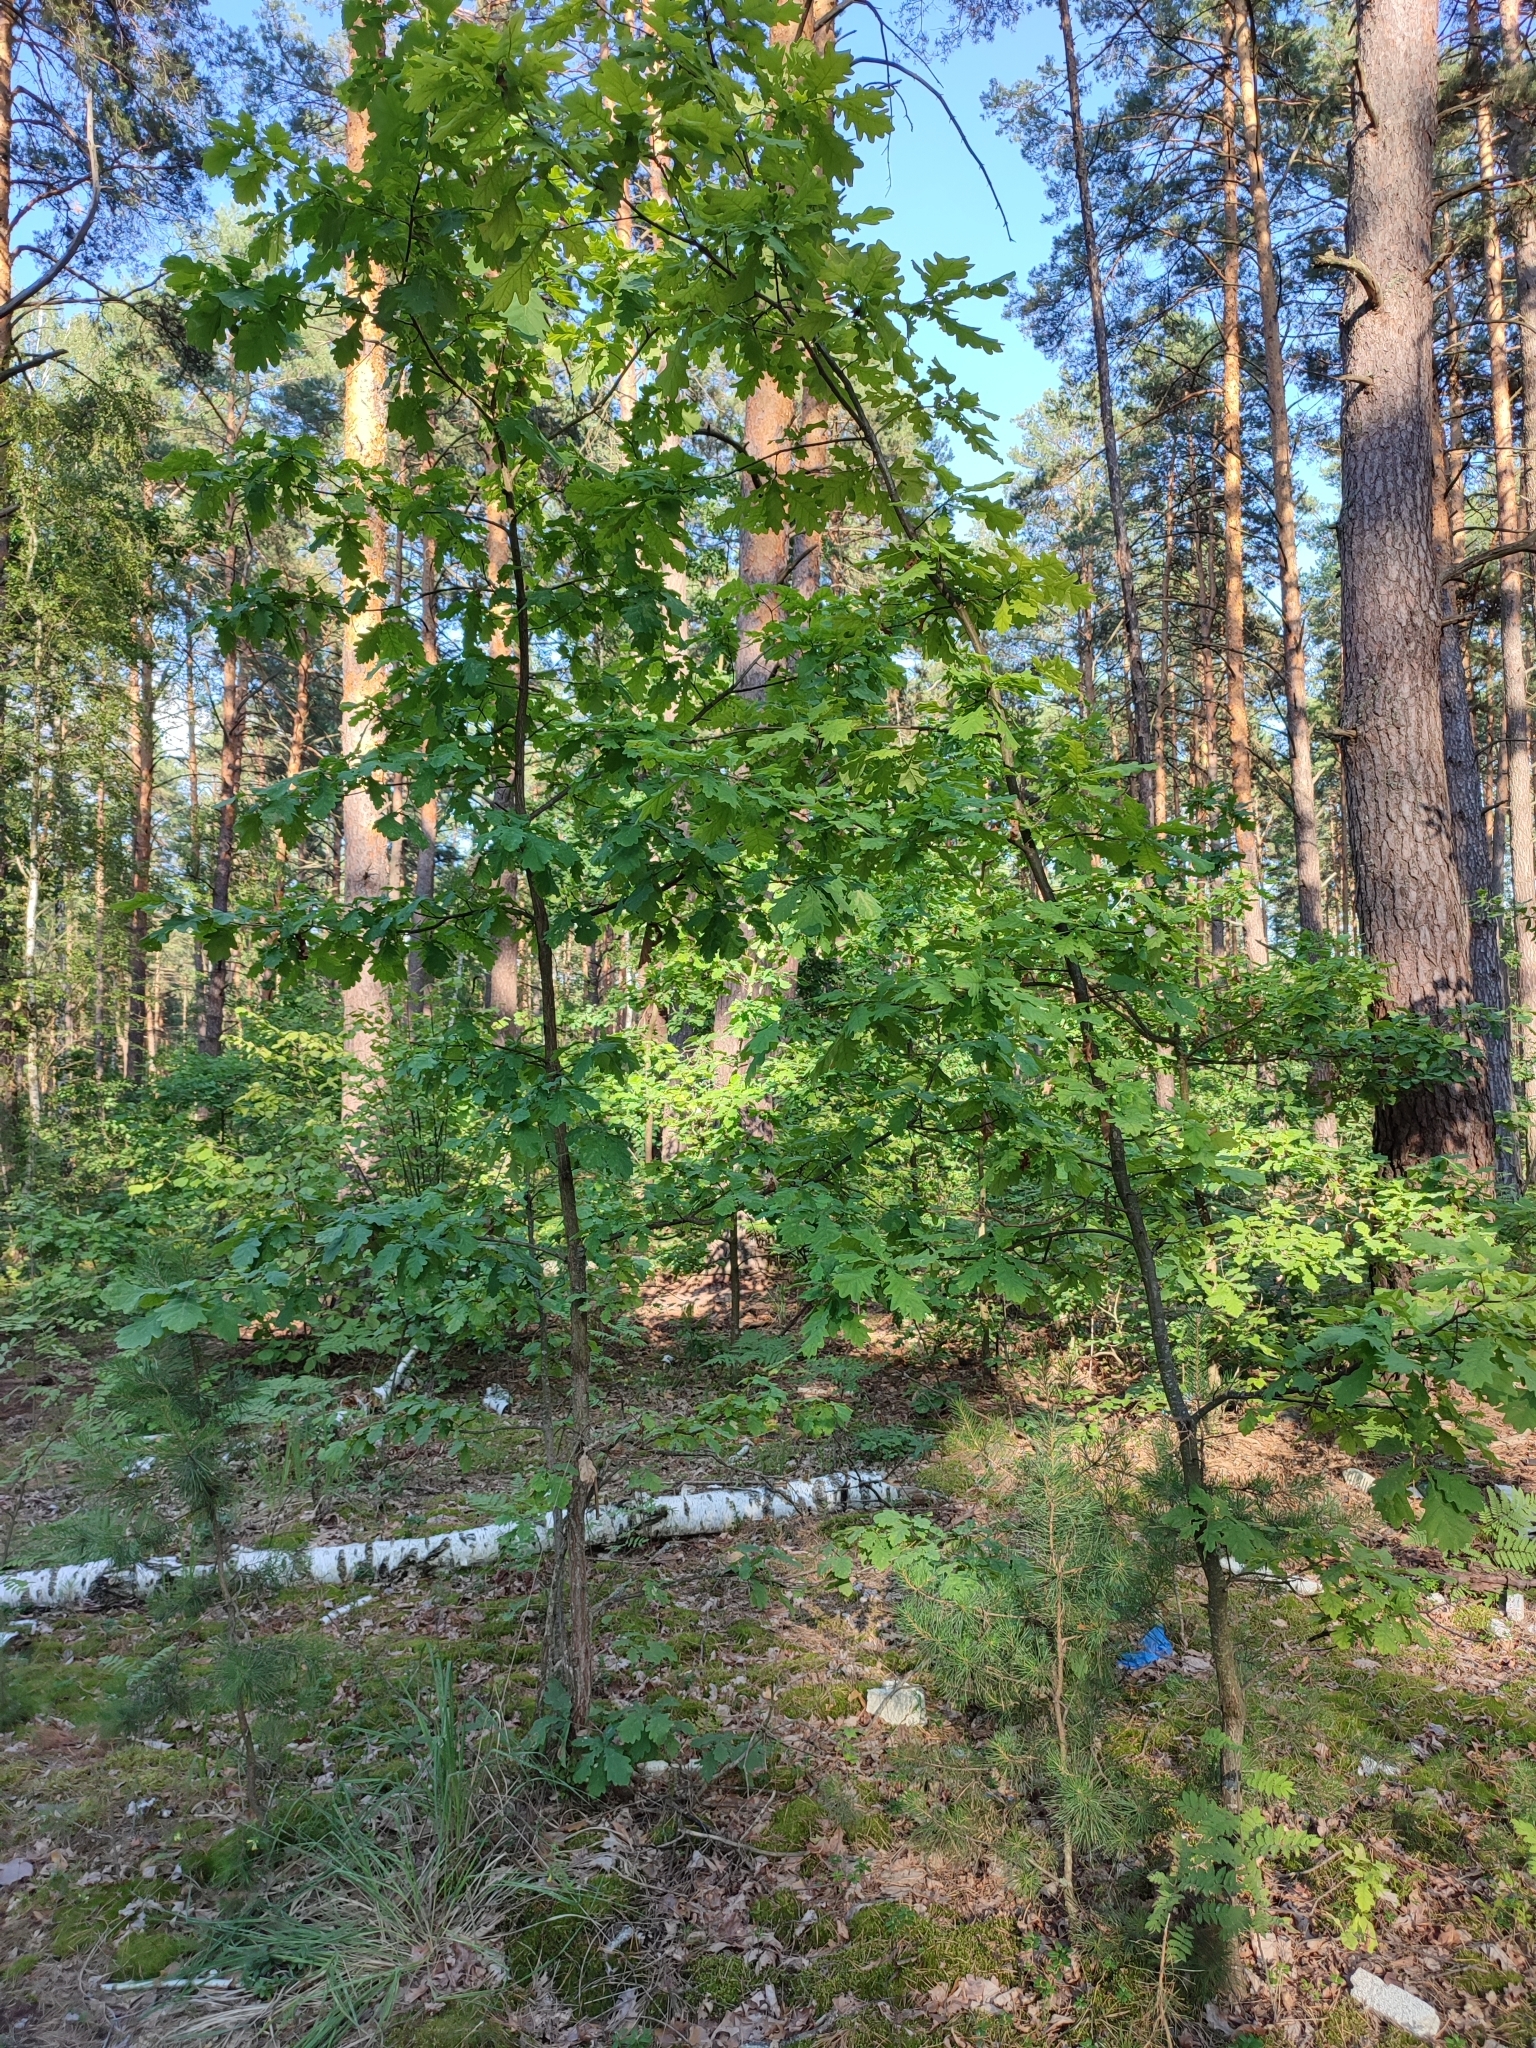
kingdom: Plantae
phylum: Tracheophyta
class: Magnoliopsida
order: Fagales
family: Fagaceae
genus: Quercus
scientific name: Quercus robur
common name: Pedunculate oak
